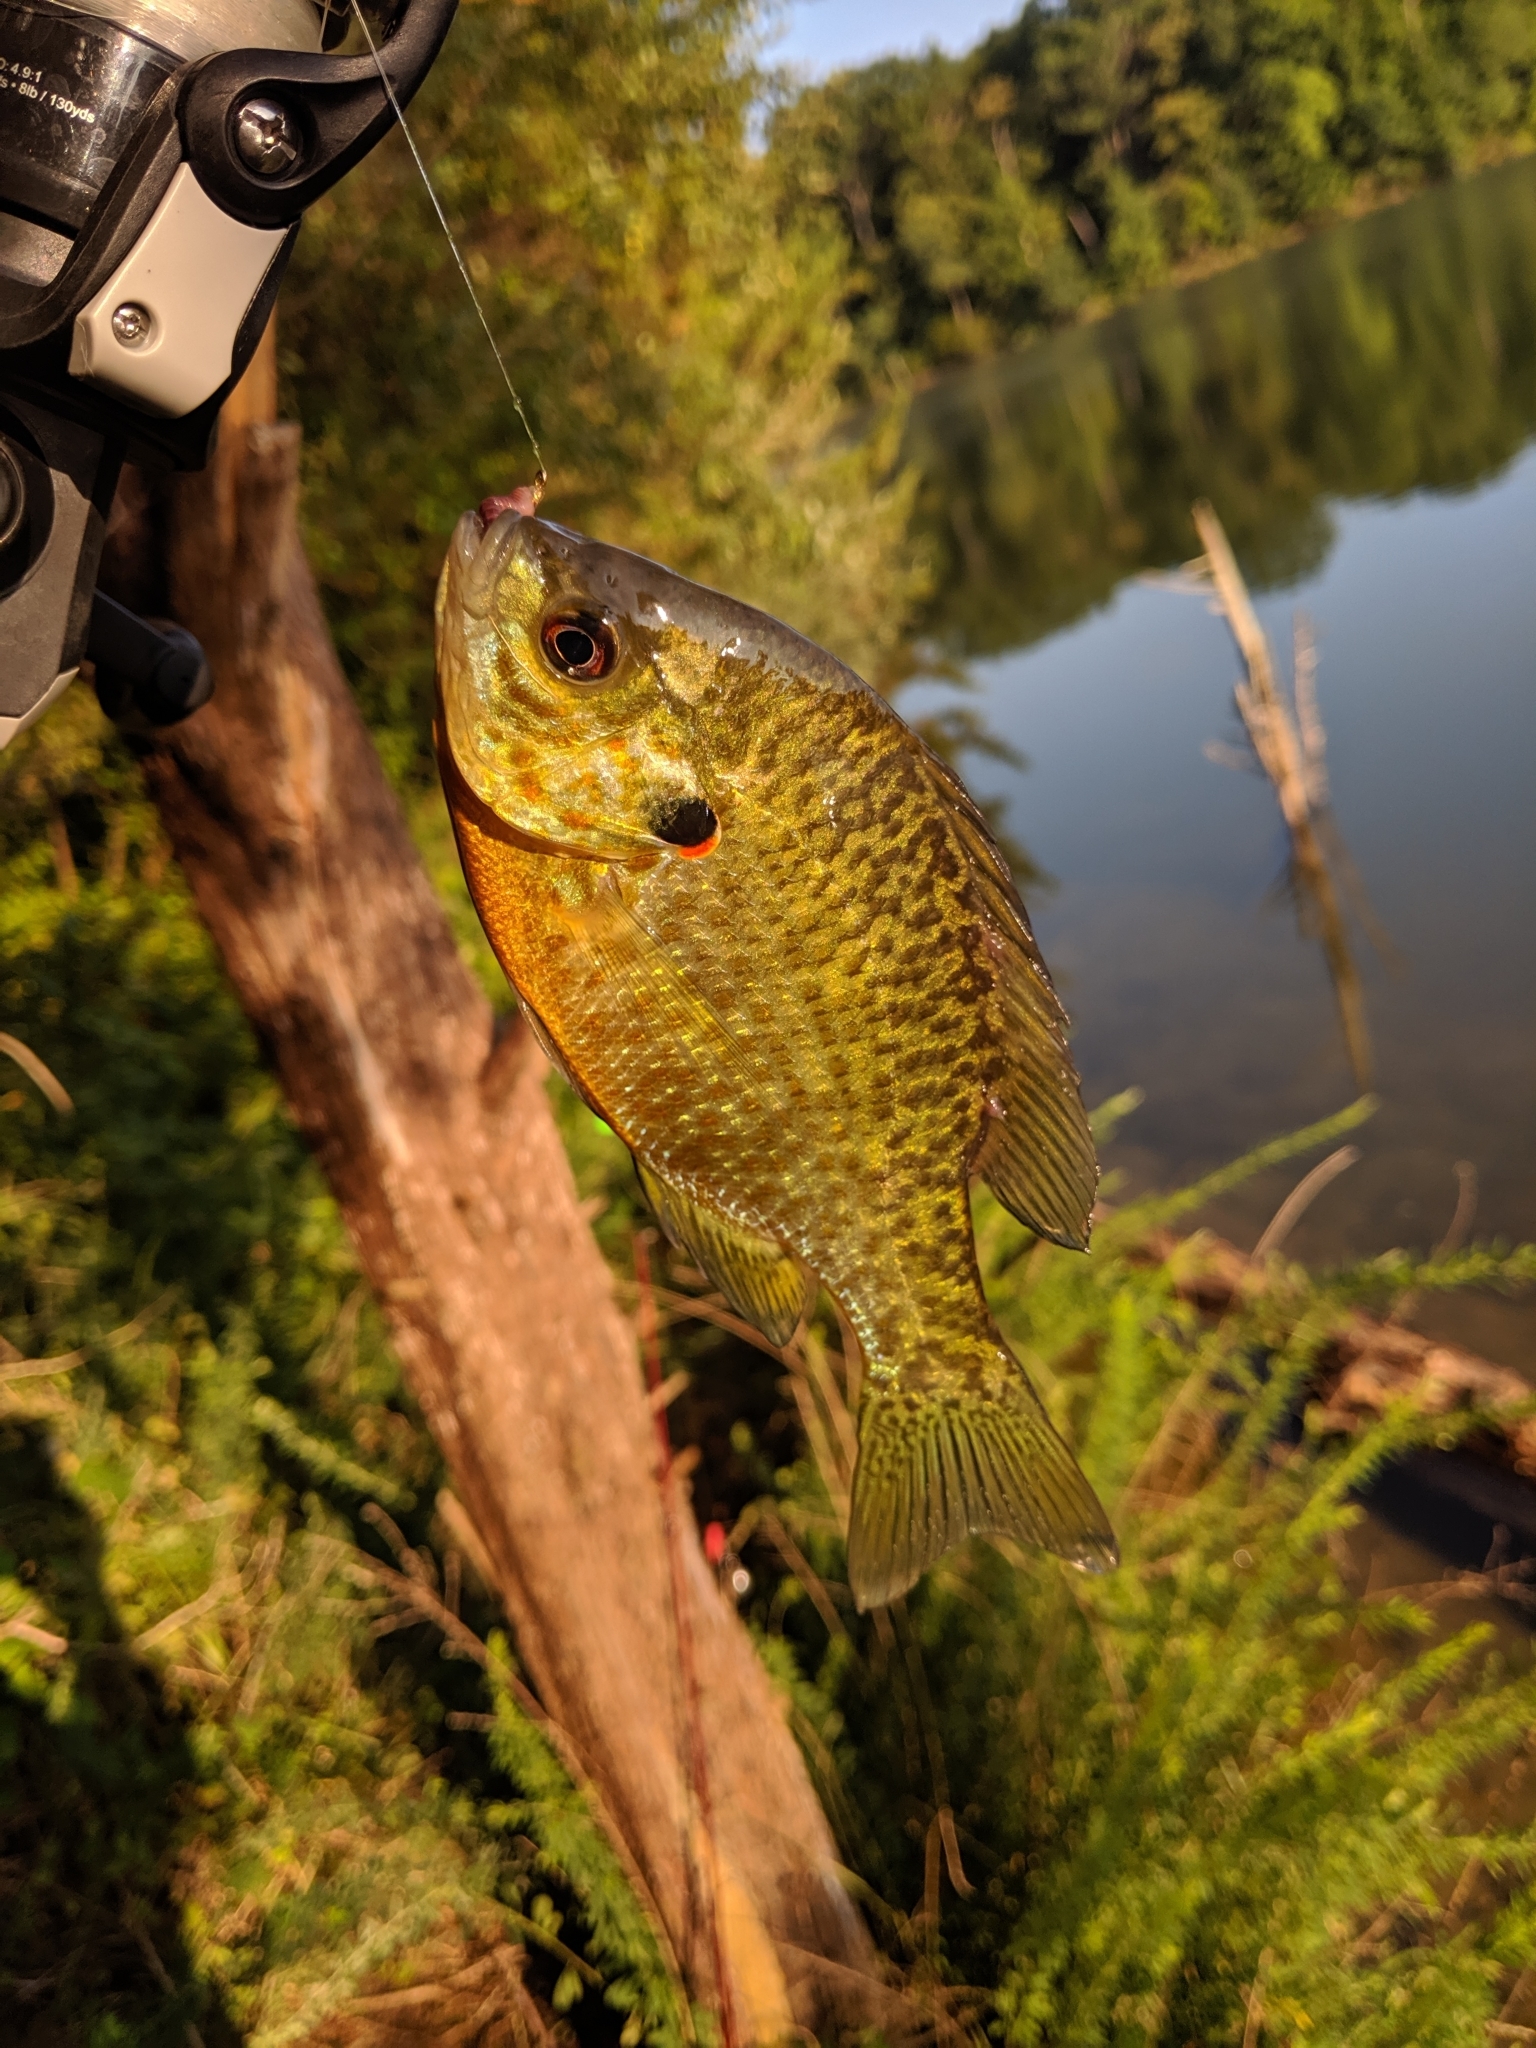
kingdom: Animalia
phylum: Chordata
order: Perciformes
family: Centrarchidae
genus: Lepomis
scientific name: Lepomis
